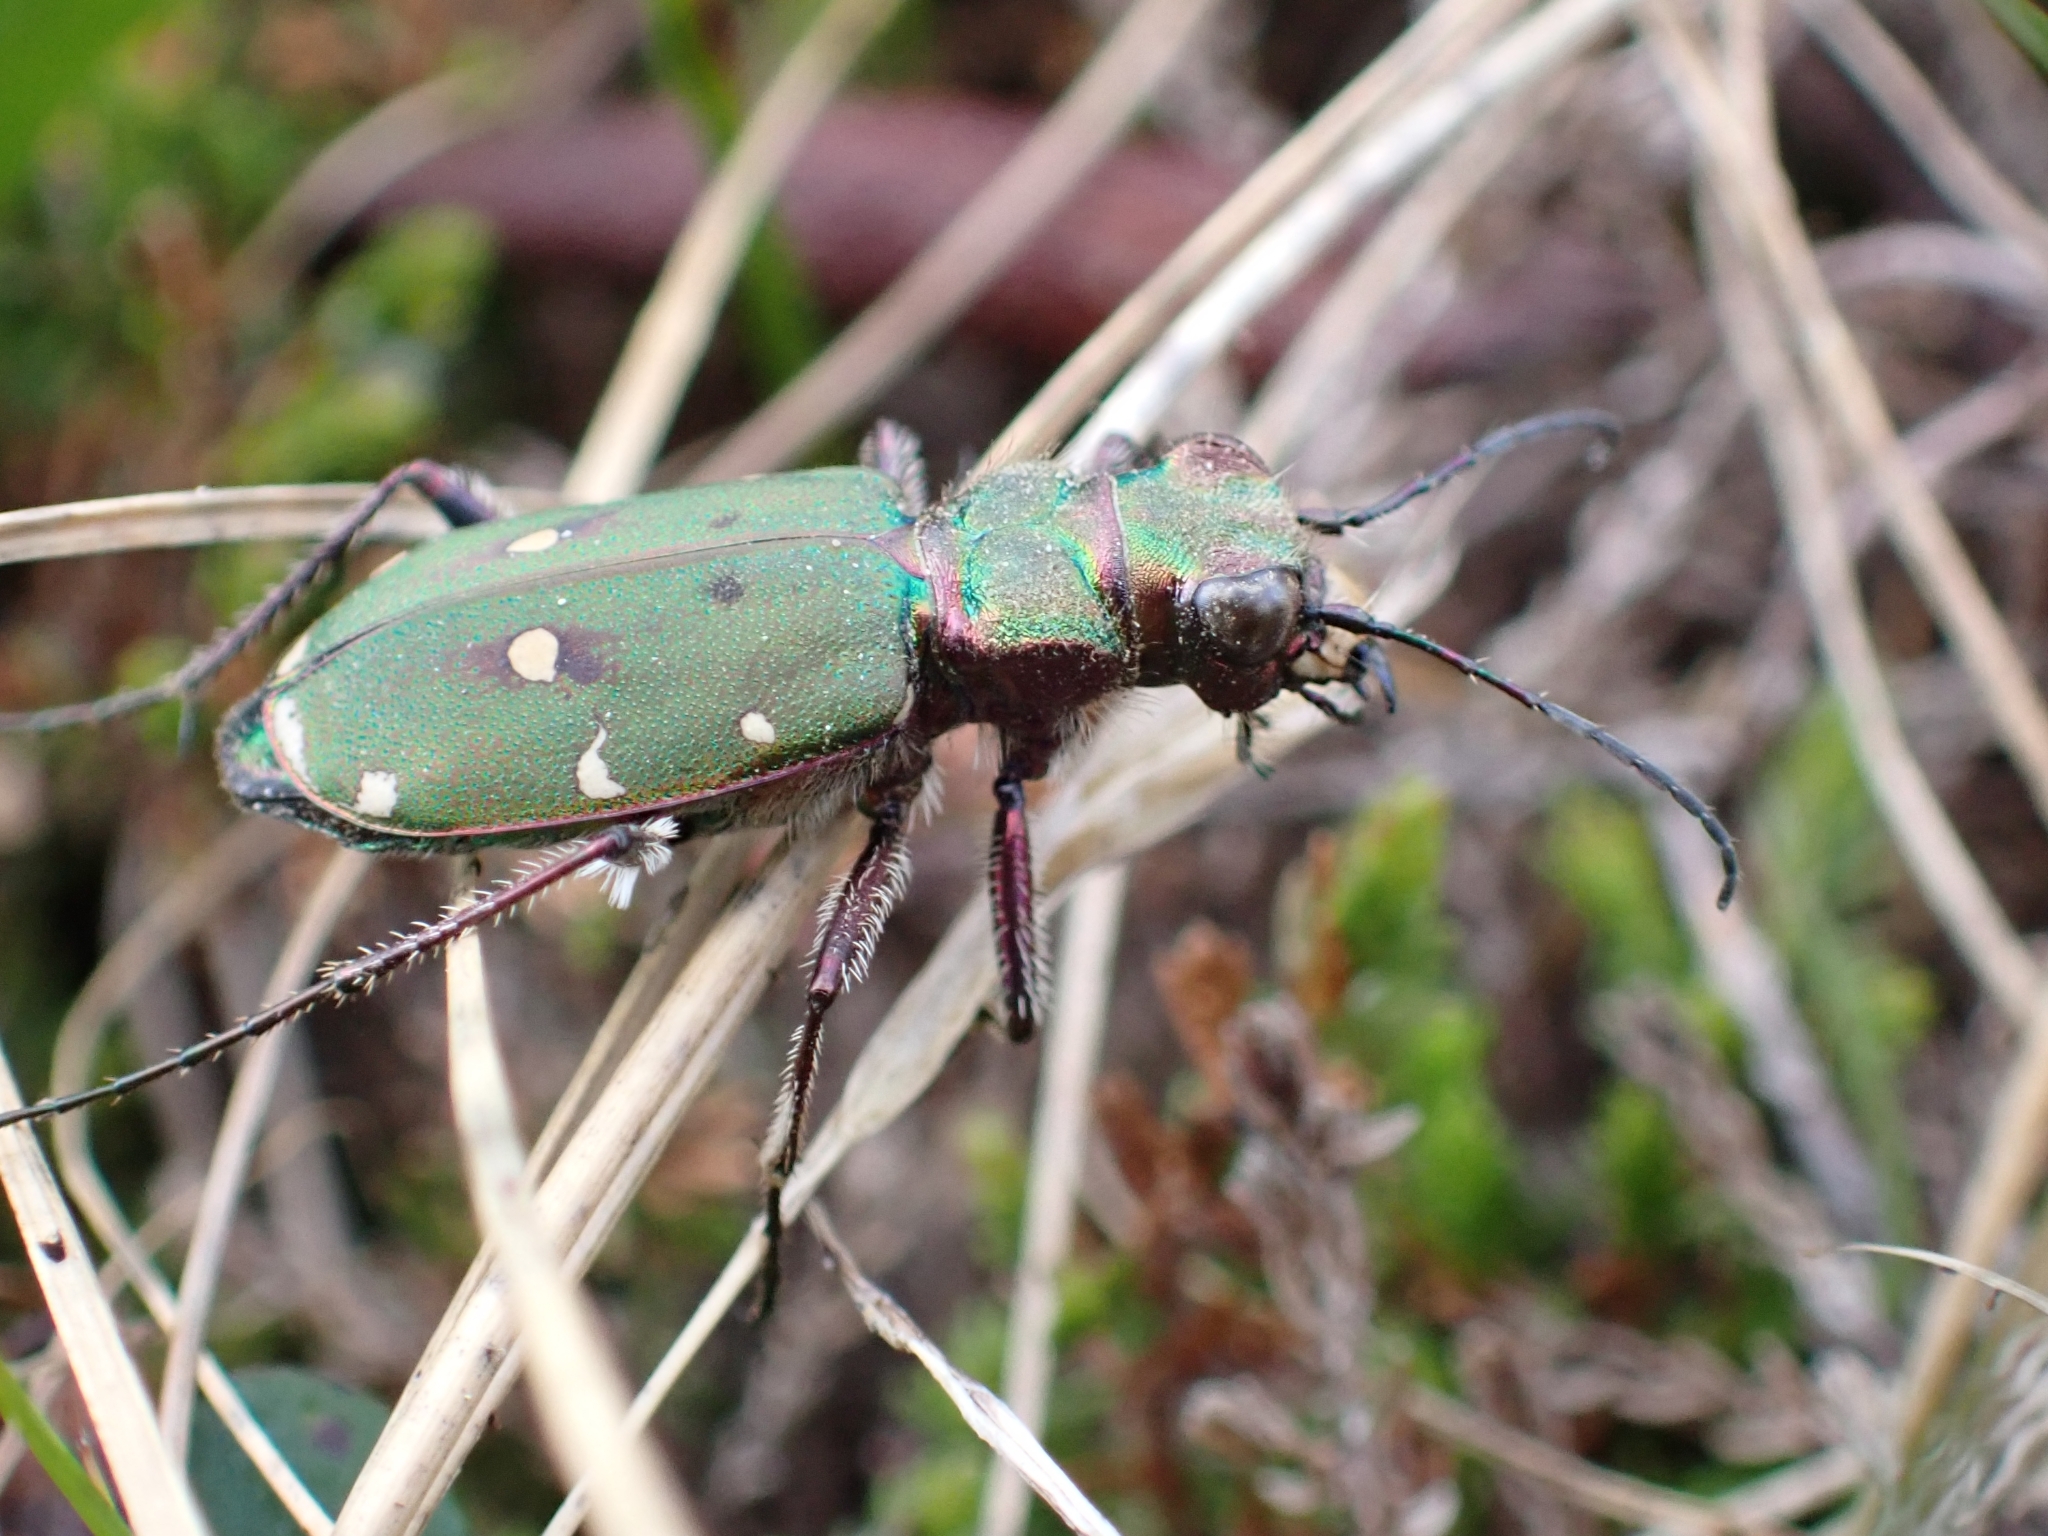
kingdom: Animalia
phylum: Arthropoda
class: Insecta
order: Coleoptera
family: Carabidae
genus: Cicindela
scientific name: Cicindela campestris
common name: Common tiger beetle
